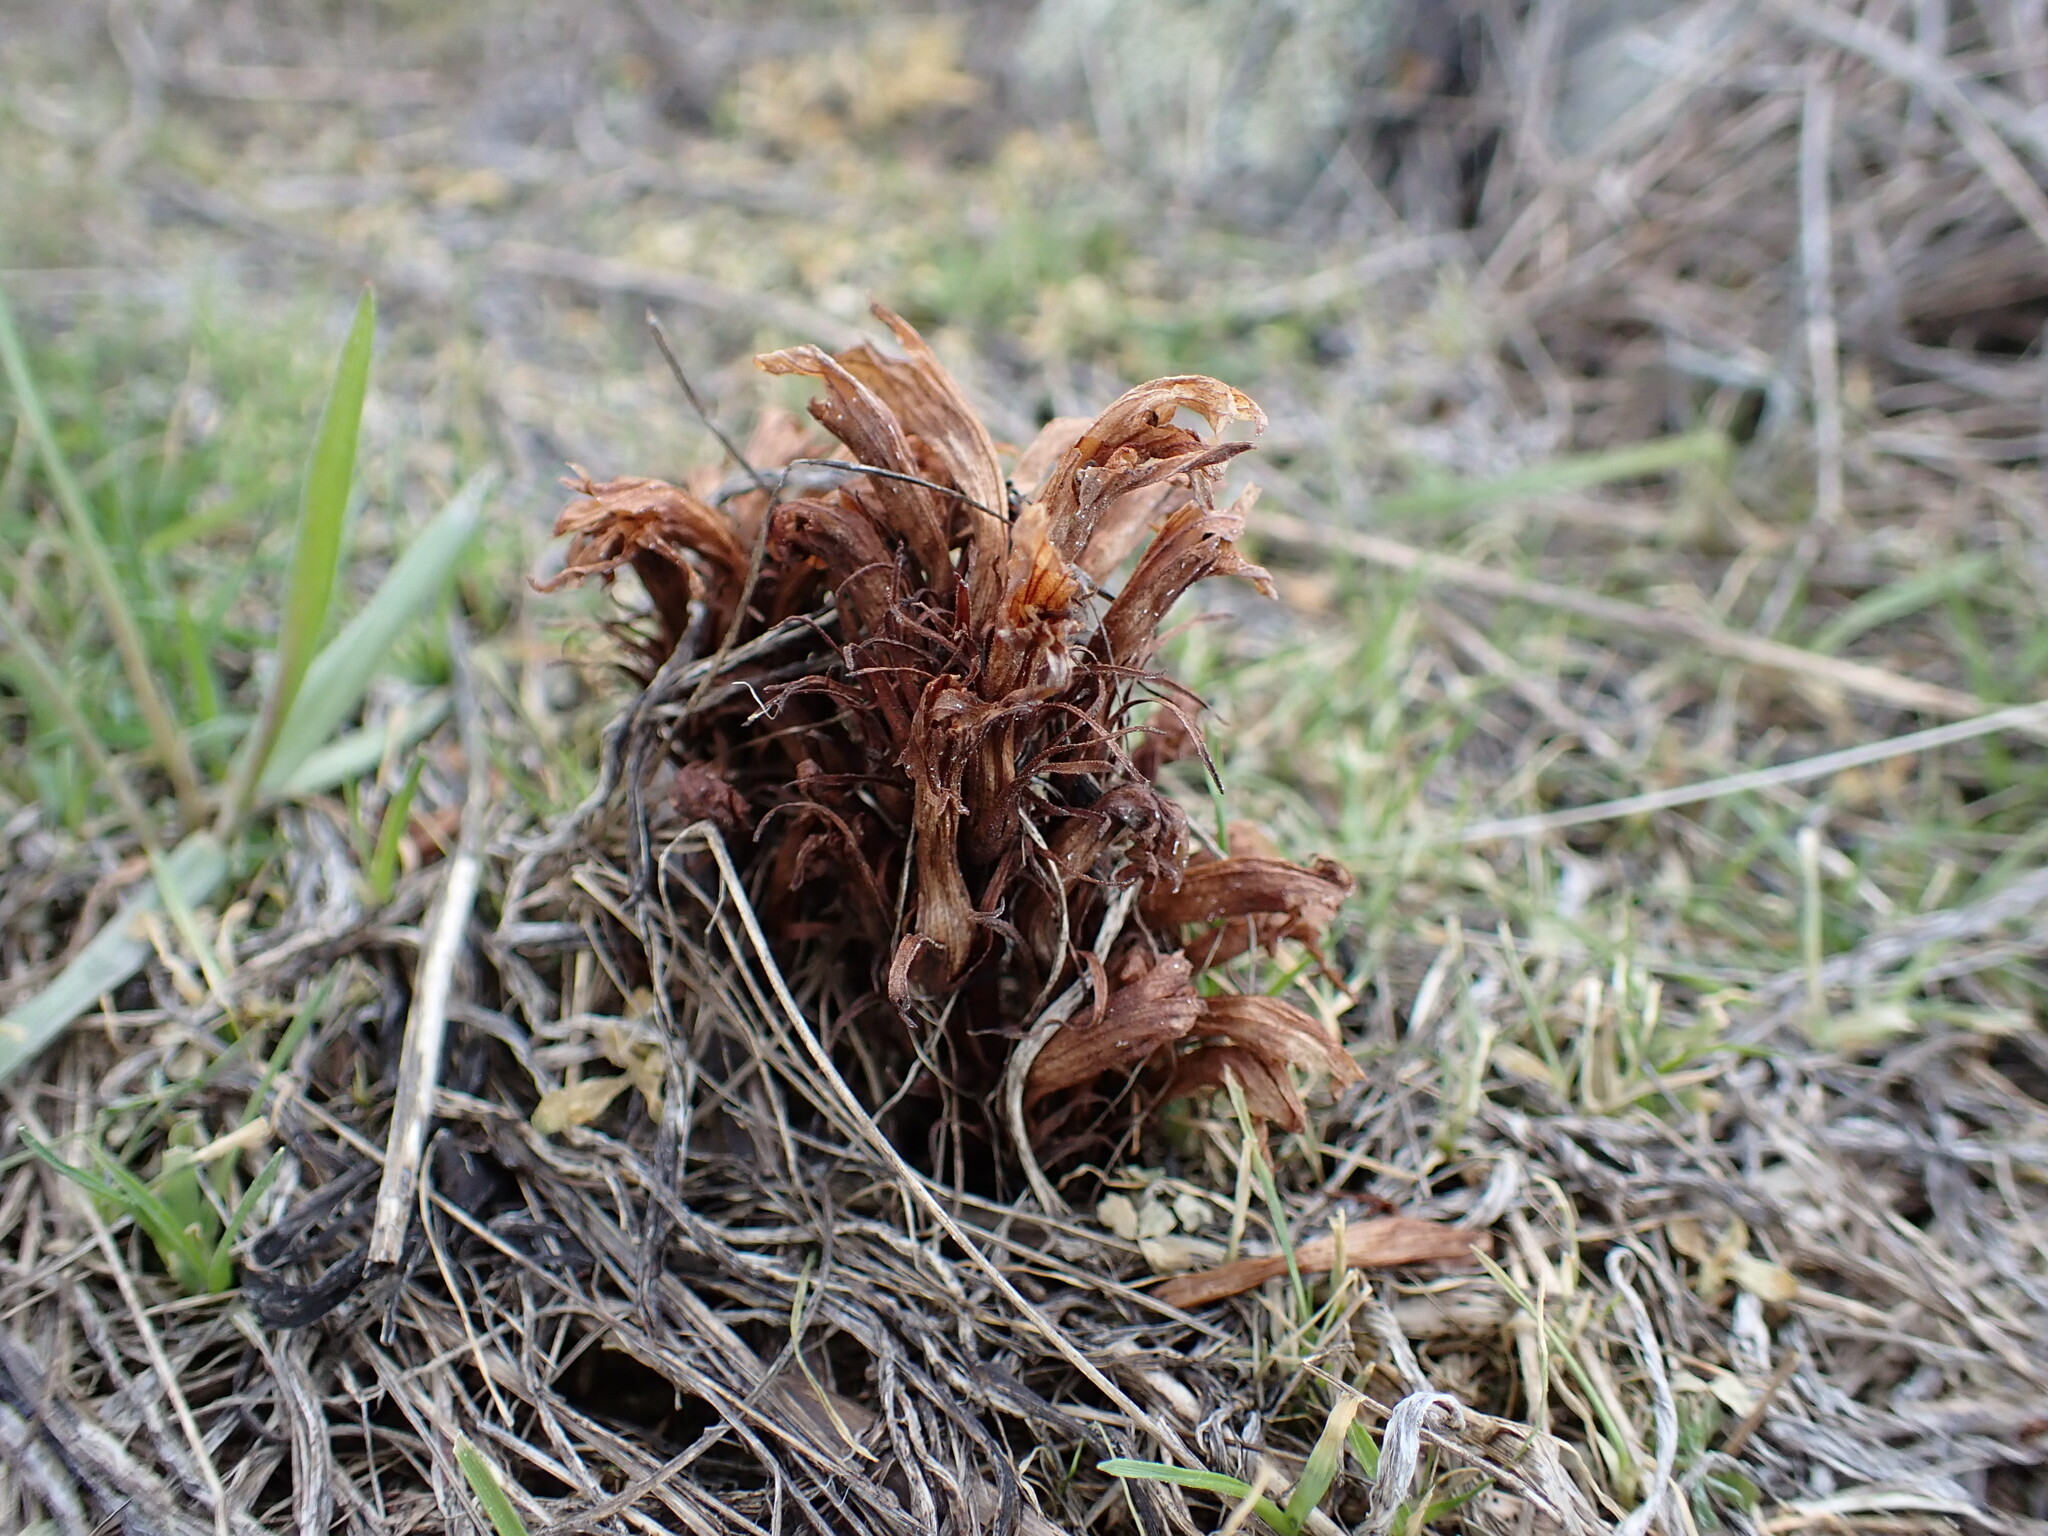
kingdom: Plantae
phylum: Tracheophyta
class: Magnoliopsida
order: Lamiales
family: Orobanchaceae
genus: Aphyllon
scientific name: Aphyllon californicum
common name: California broomrape
